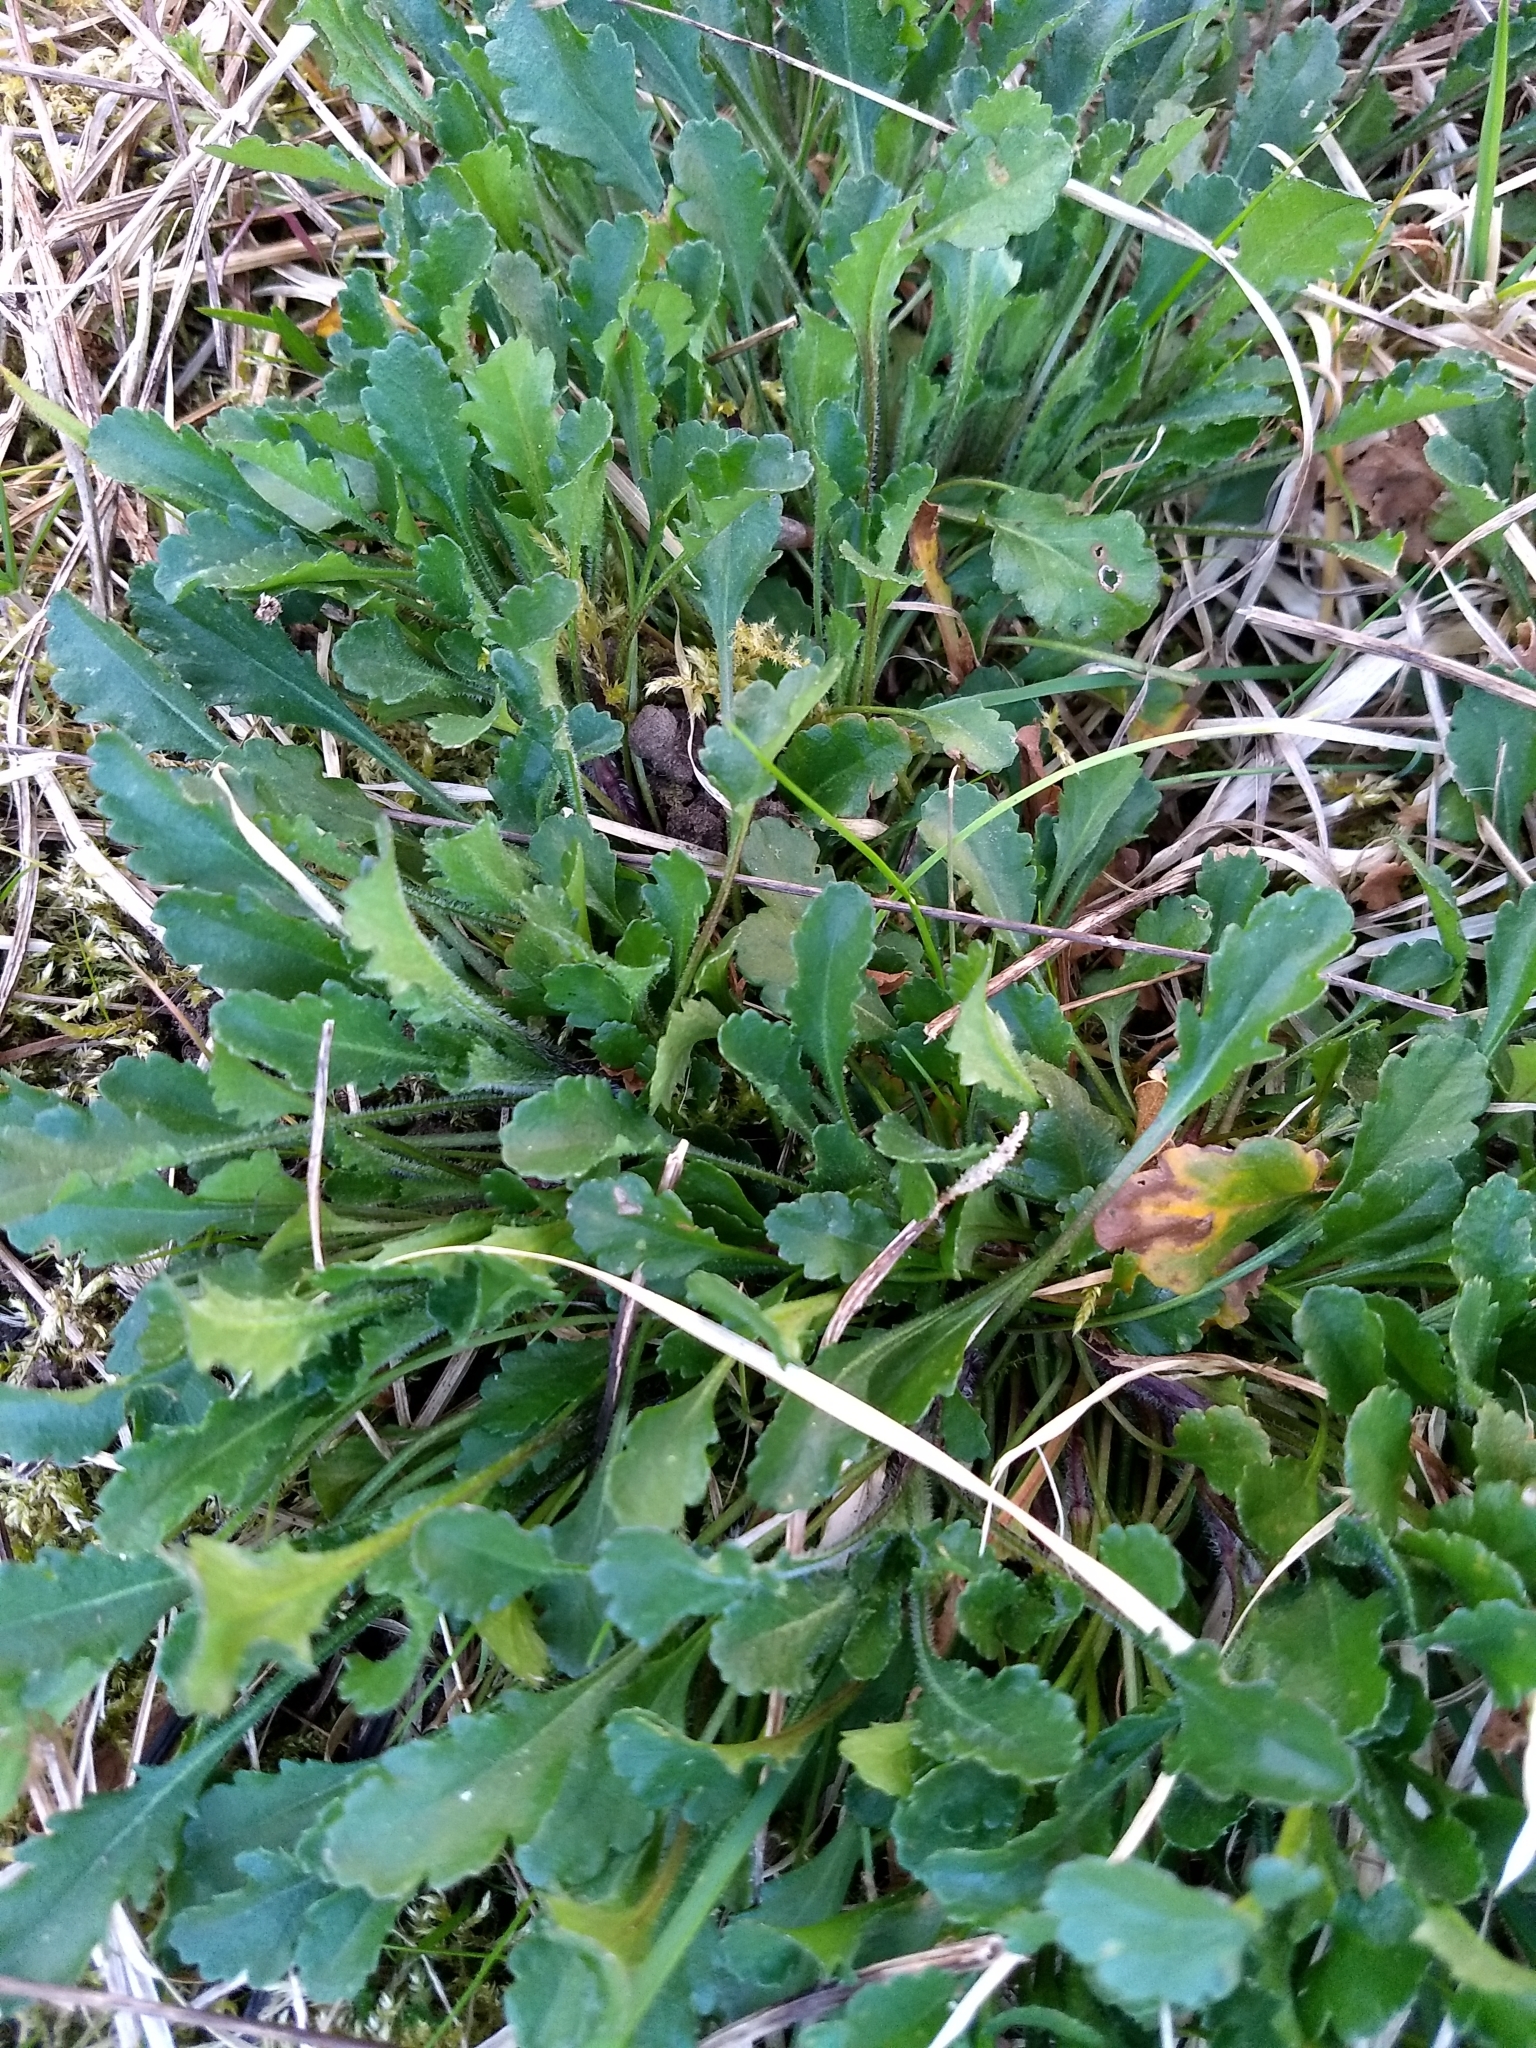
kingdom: Plantae
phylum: Tracheophyta
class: Magnoliopsida
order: Asterales
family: Asteraceae
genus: Leucanthemum
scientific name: Leucanthemum vulgare
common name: Oxeye daisy
